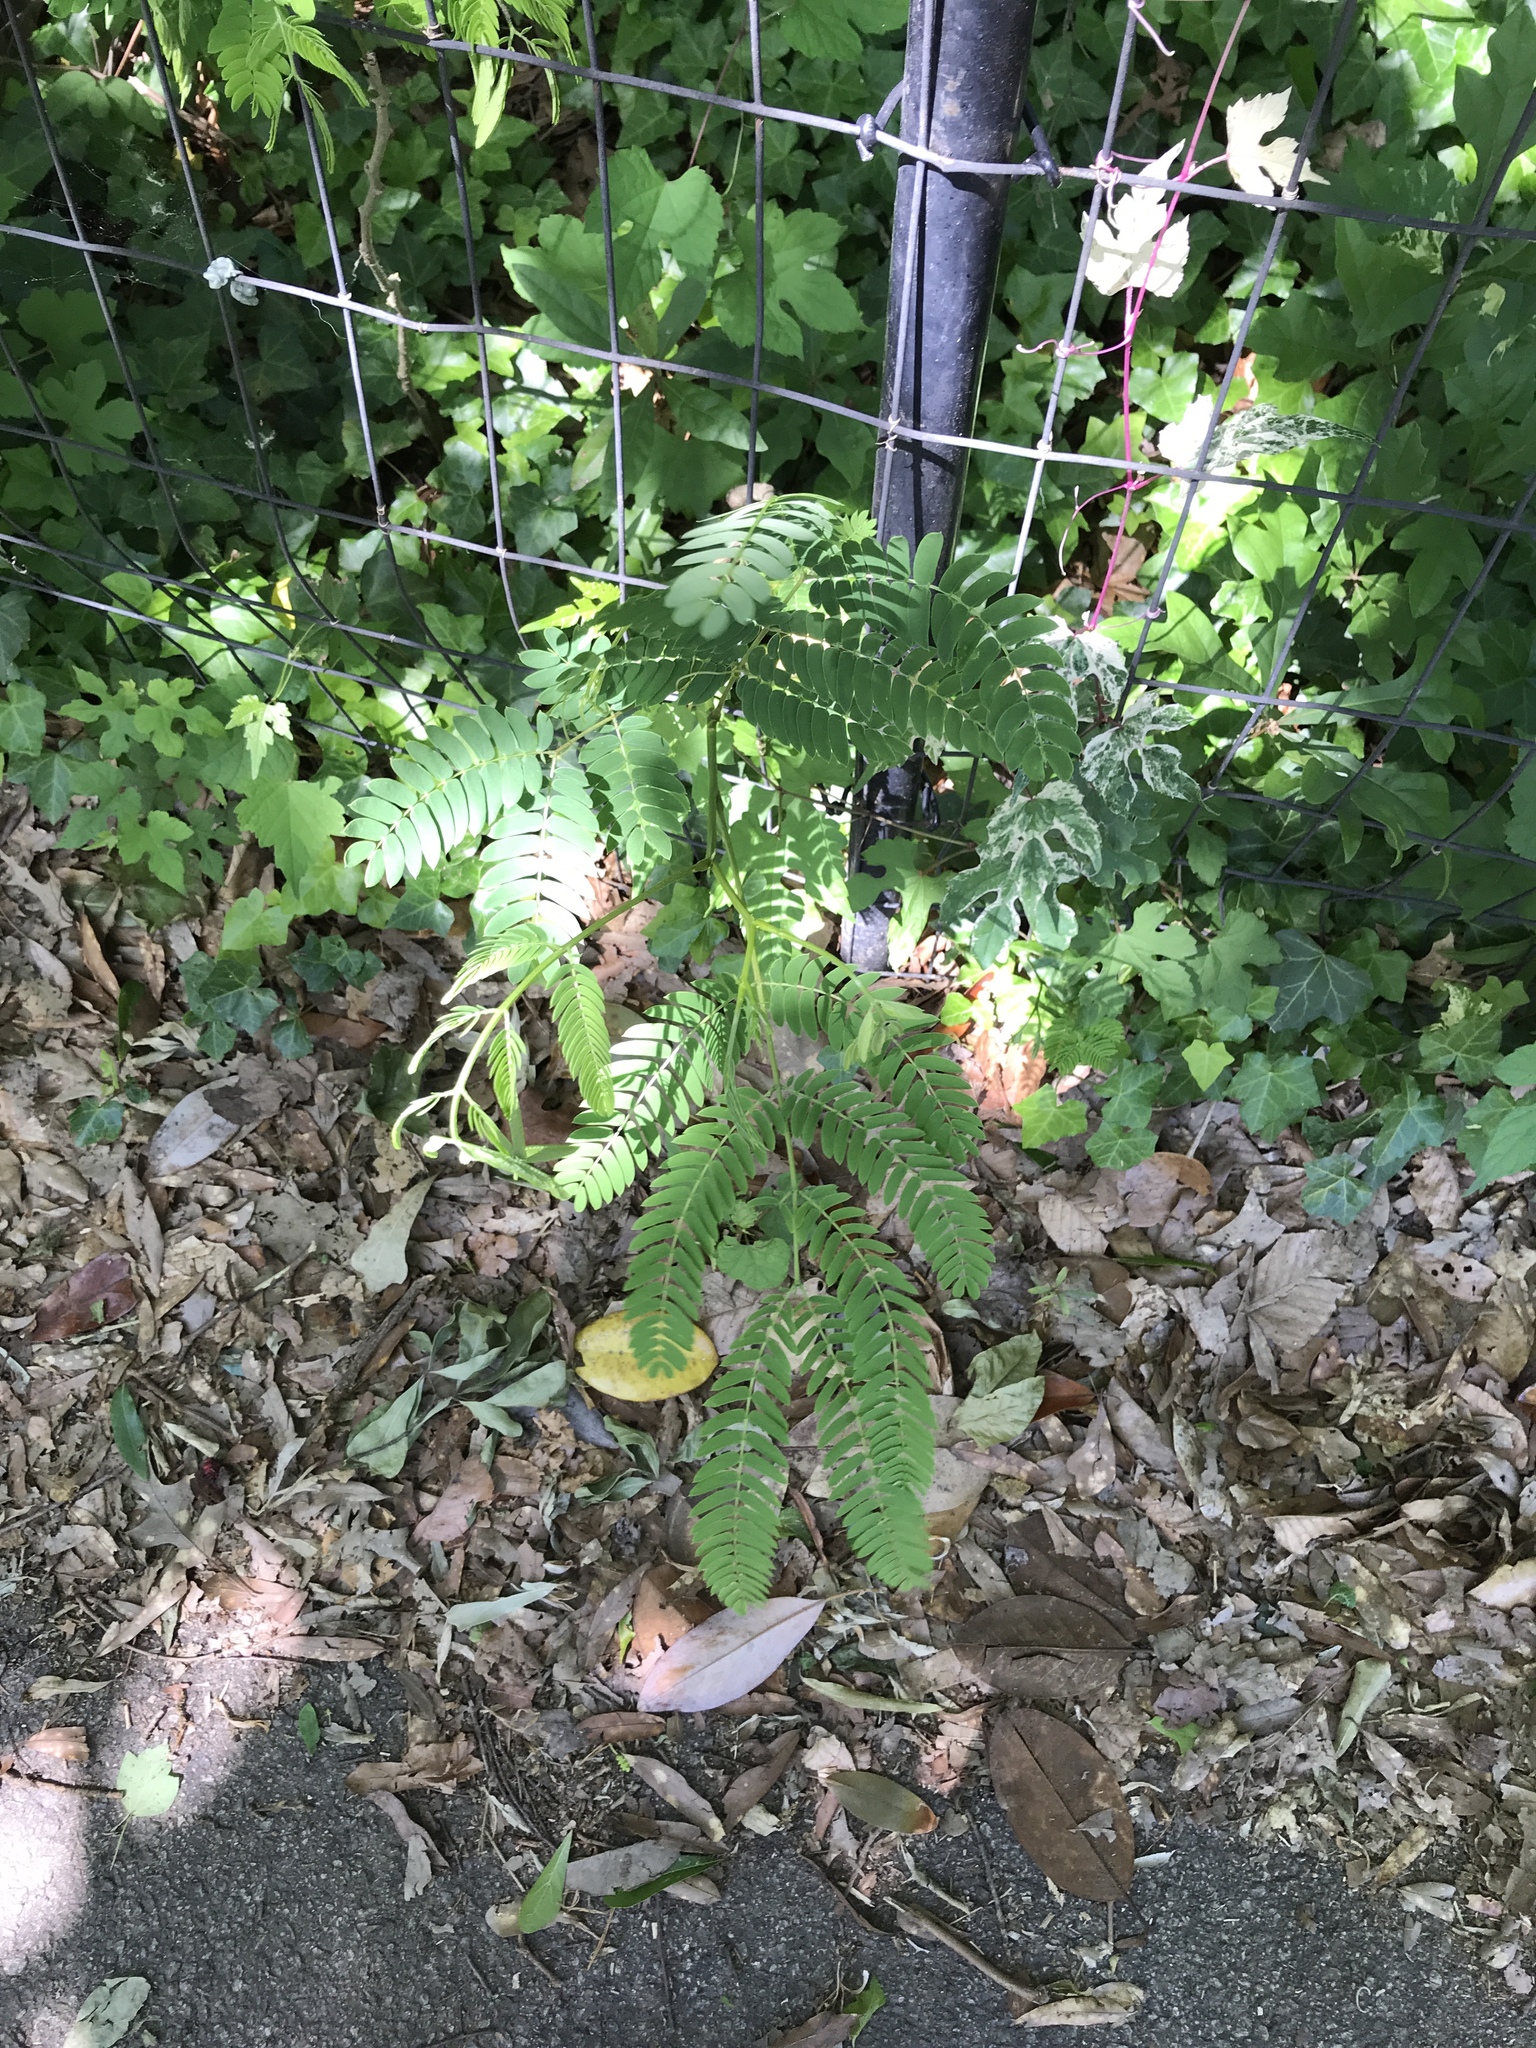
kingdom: Plantae
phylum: Tracheophyta
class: Magnoliopsida
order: Fabales
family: Fabaceae
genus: Albizia
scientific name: Albizia julibrissin
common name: Silktree
